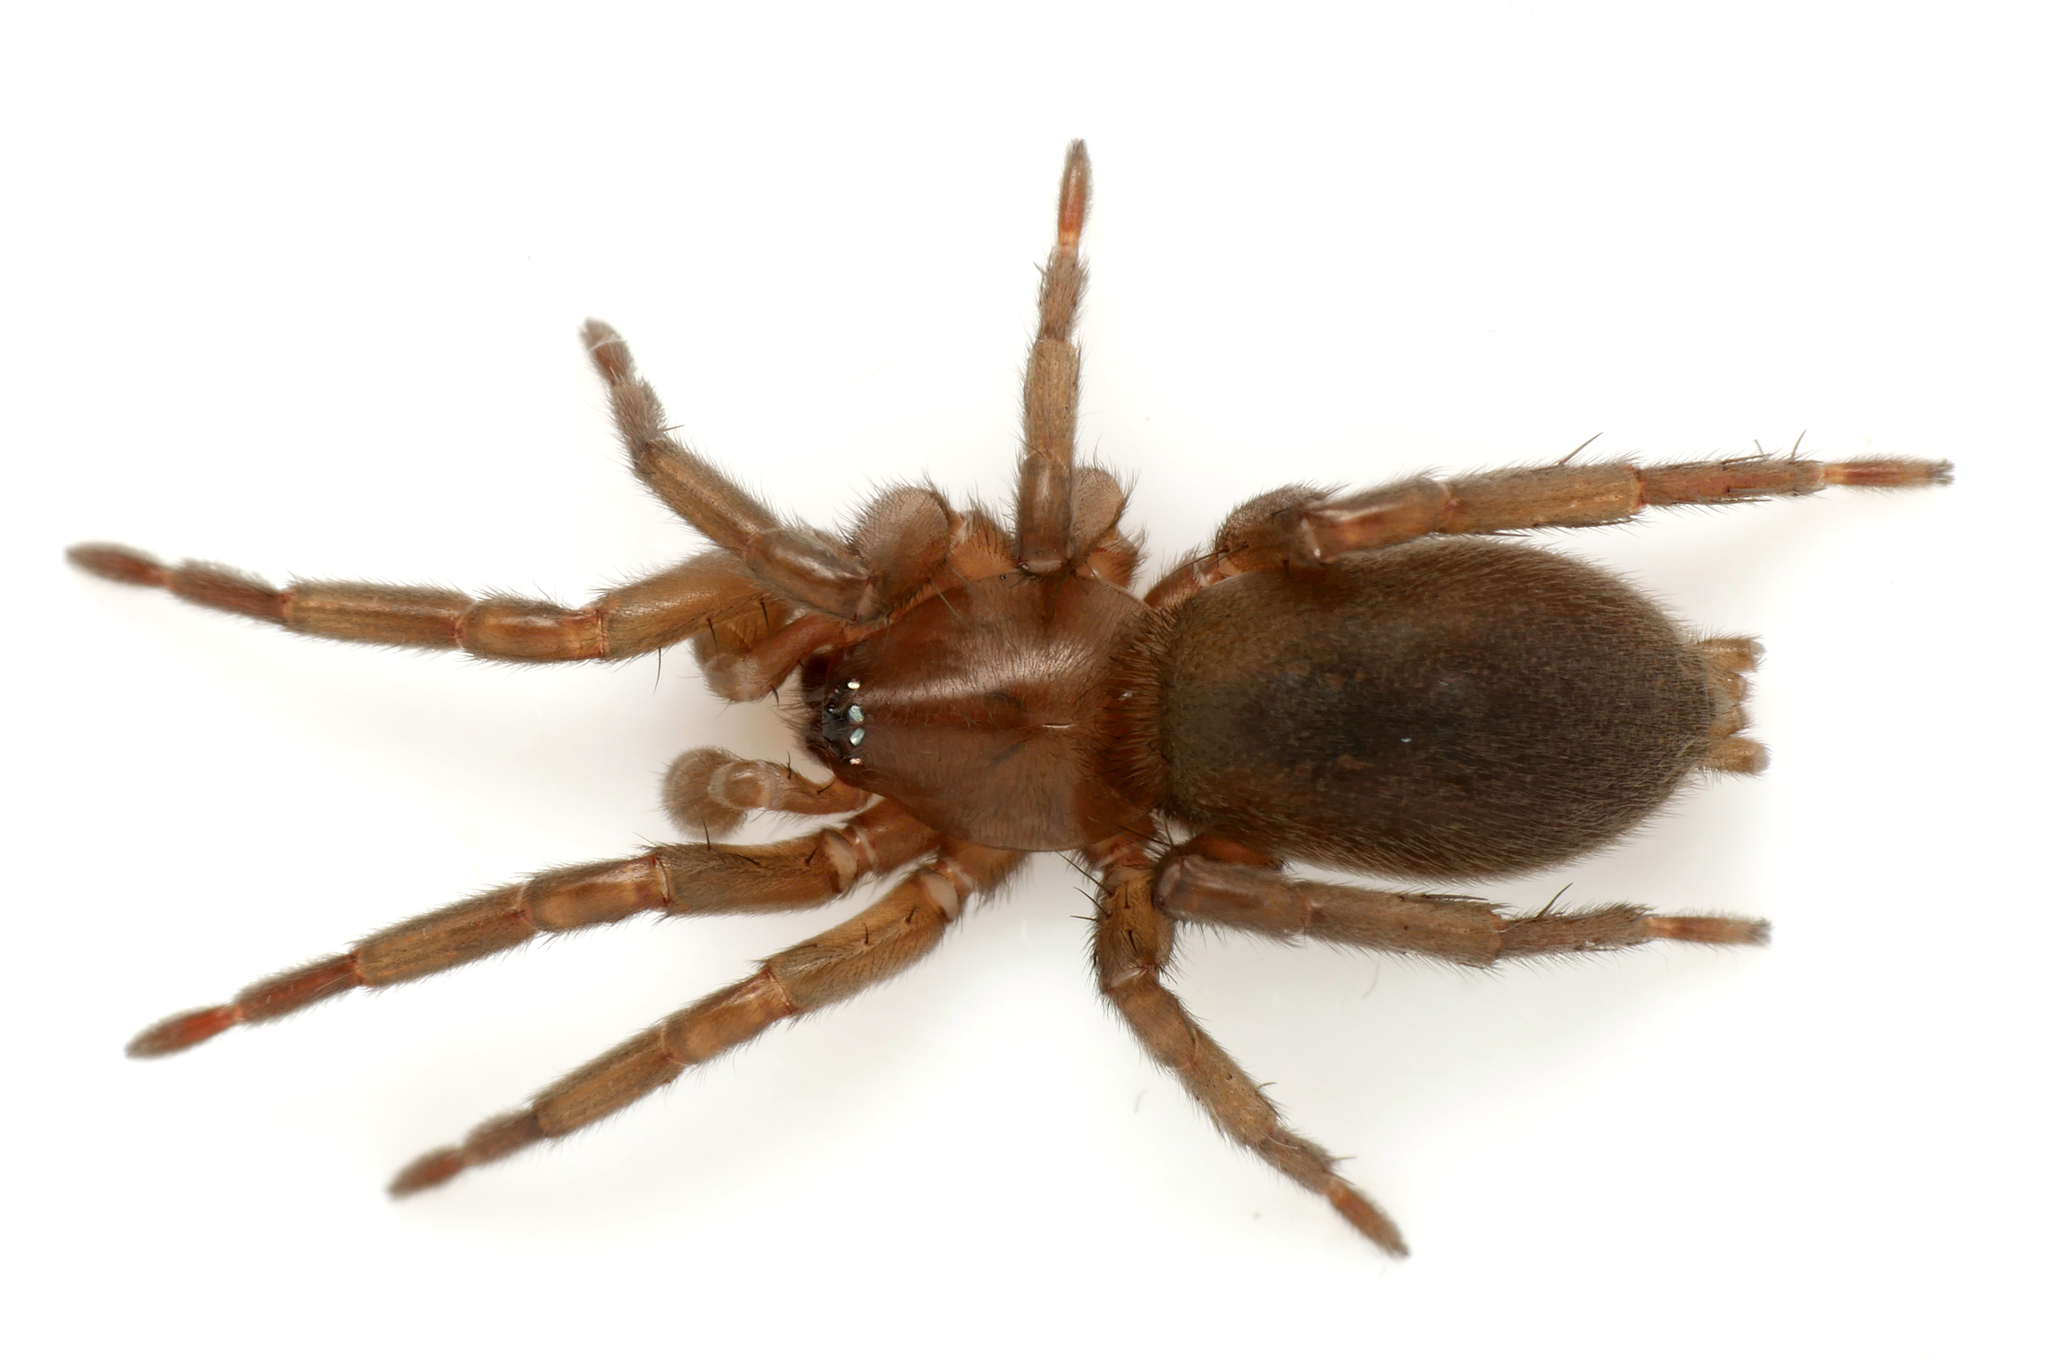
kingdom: Animalia
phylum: Arthropoda
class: Arachnida
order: Araneae
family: Gnaphosidae
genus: Haplodrassus
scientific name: Haplodrassus silvestris
